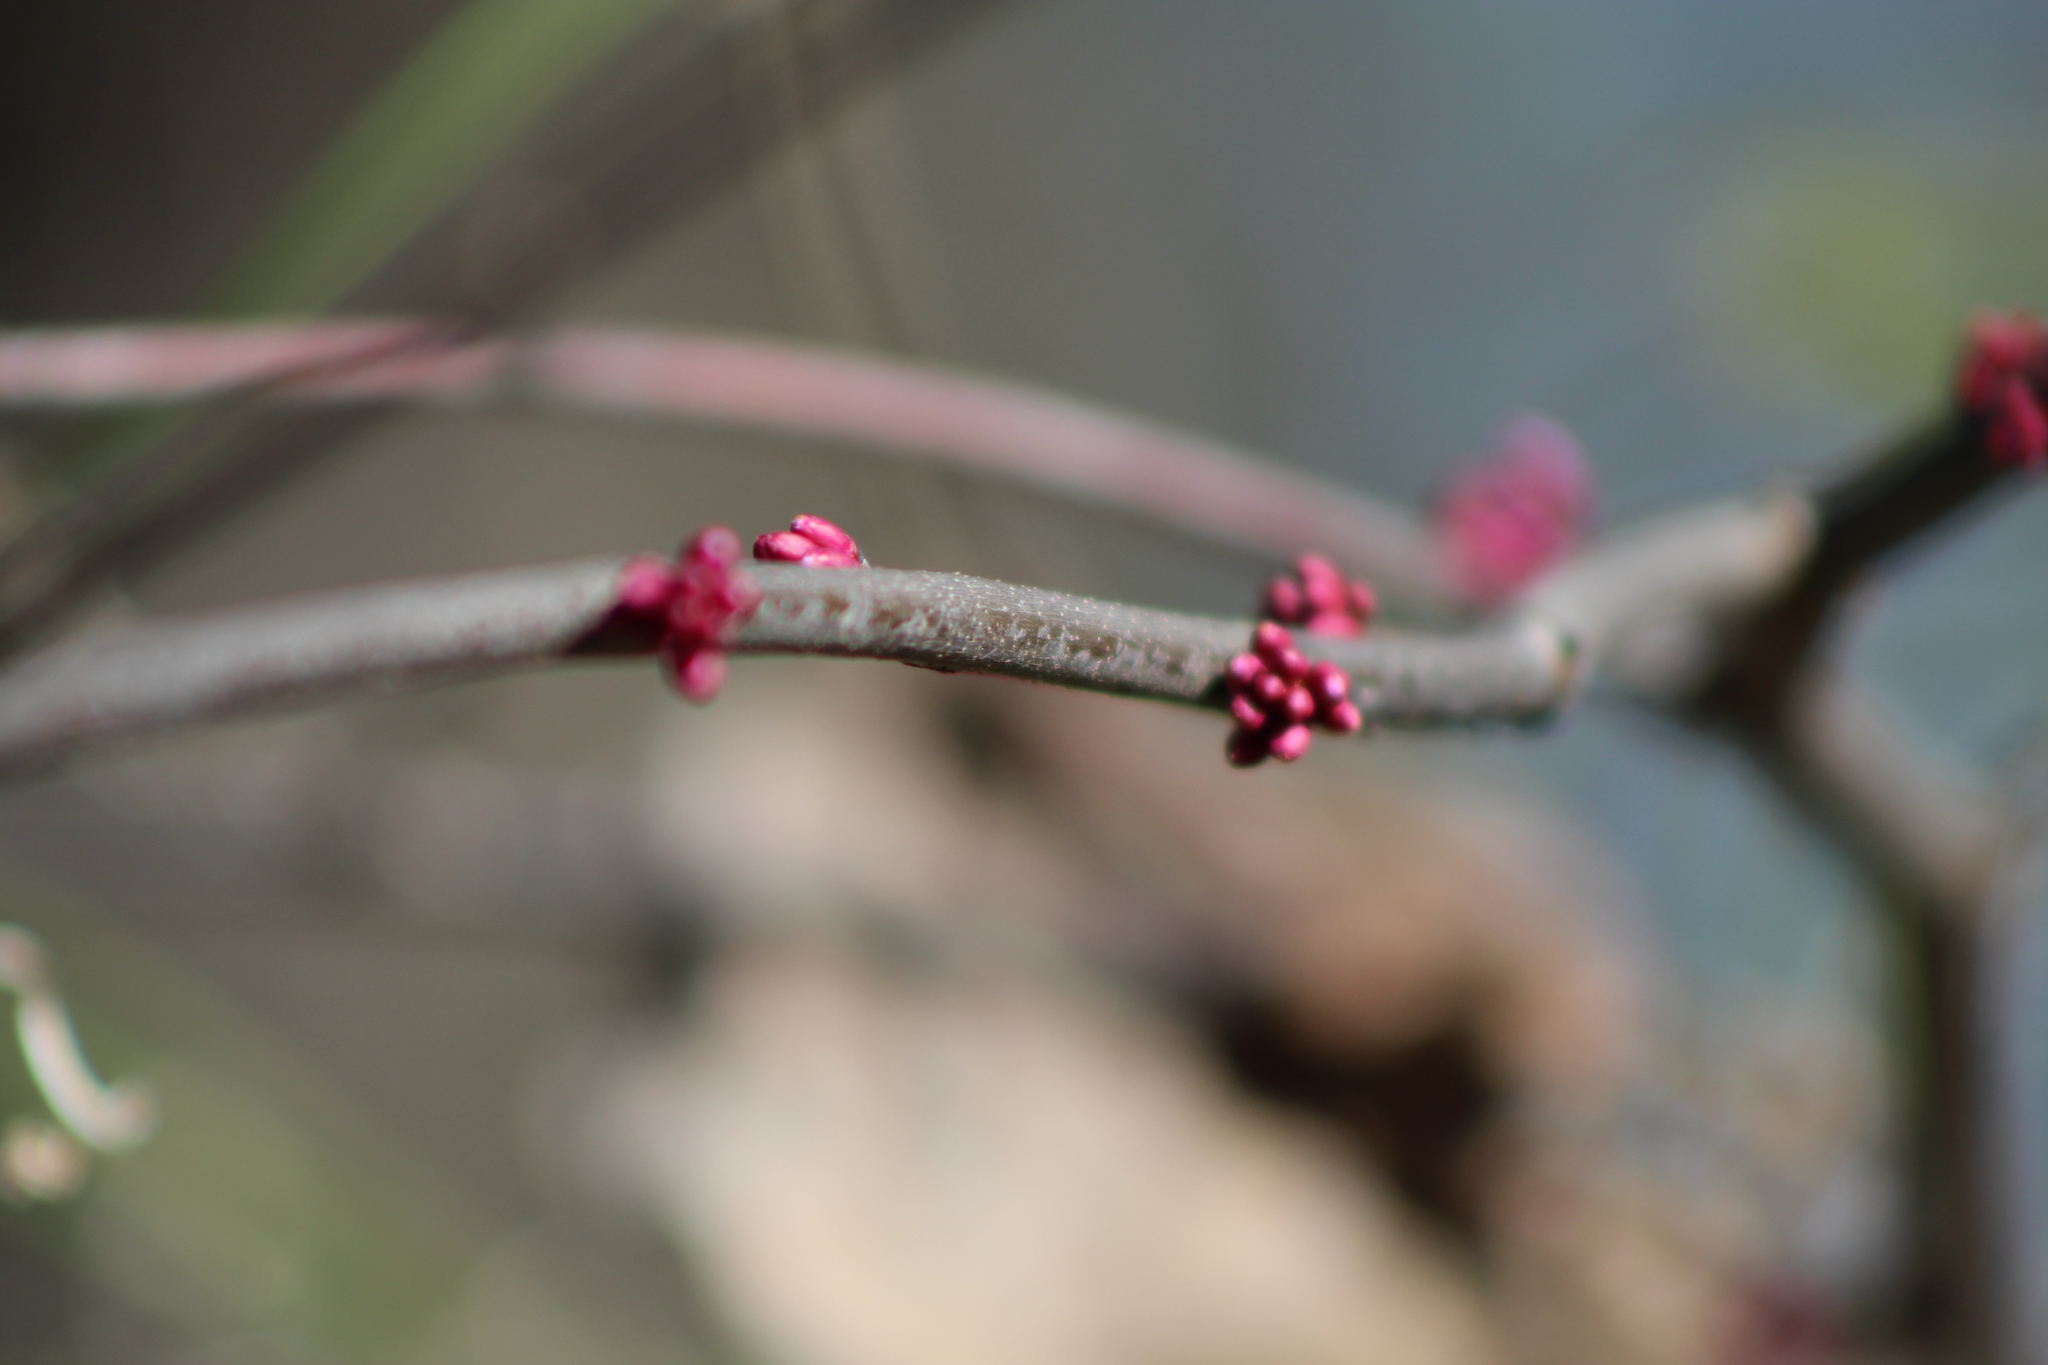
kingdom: Plantae
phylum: Tracheophyta
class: Magnoliopsida
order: Fabales
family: Fabaceae
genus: Cercis
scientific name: Cercis canadensis
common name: Eastern redbud
